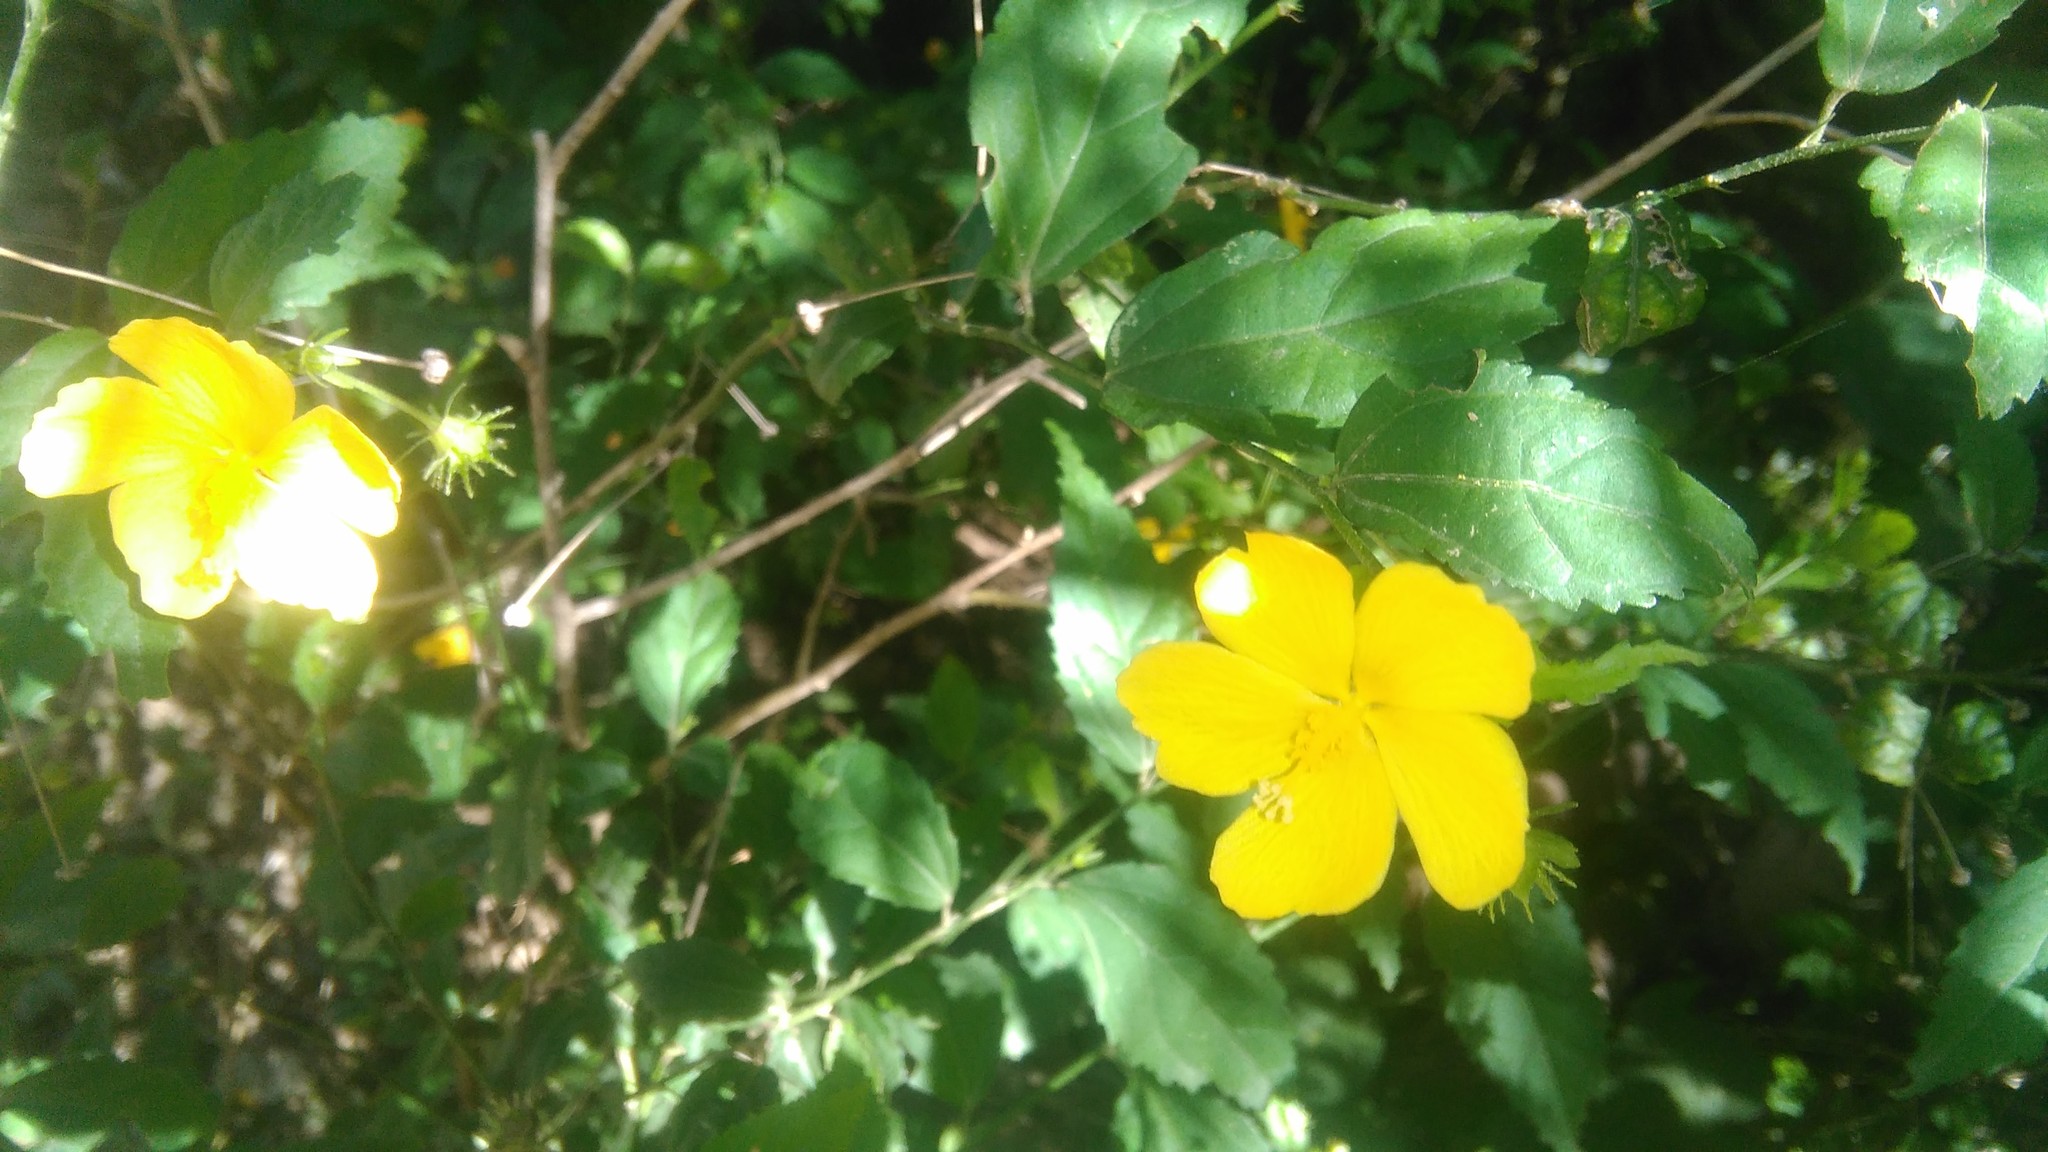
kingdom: Plantae
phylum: Tracheophyta
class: Magnoliopsida
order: Malvales
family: Malvaceae
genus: Pavonia
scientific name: Pavonia sepium
